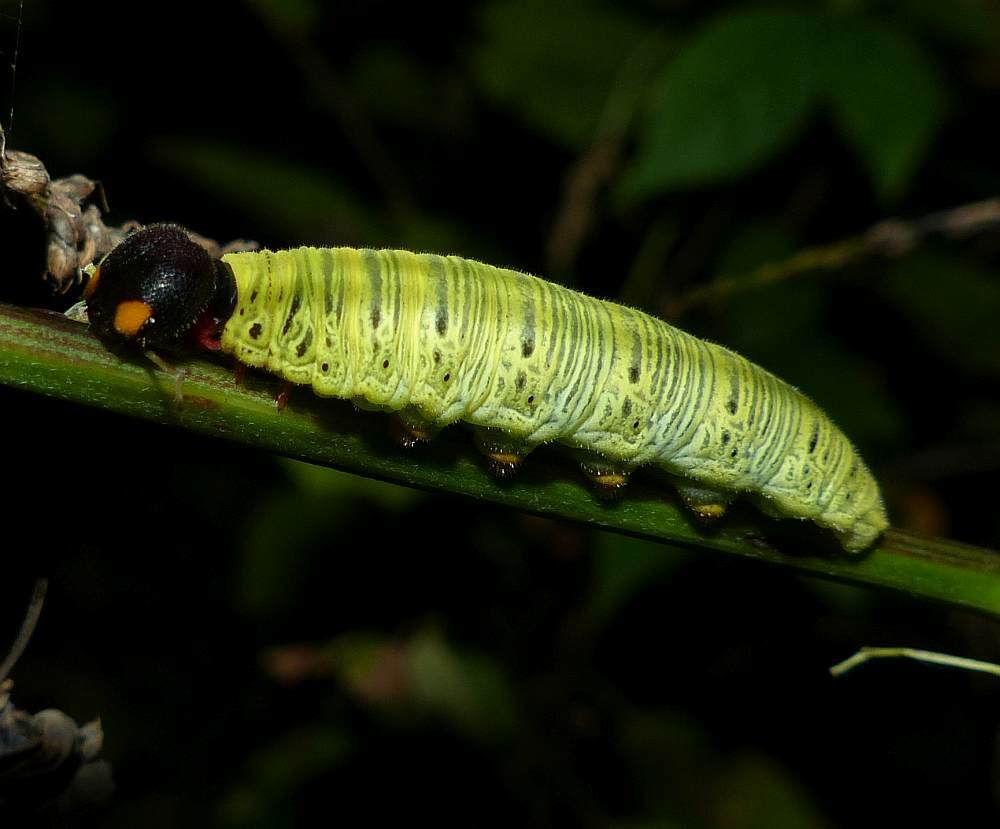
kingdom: Animalia
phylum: Arthropoda
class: Insecta
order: Lepidoptera
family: Hesperiidae
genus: Epargyreus
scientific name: Epargyreus clarus
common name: Silver-spotted skipper
